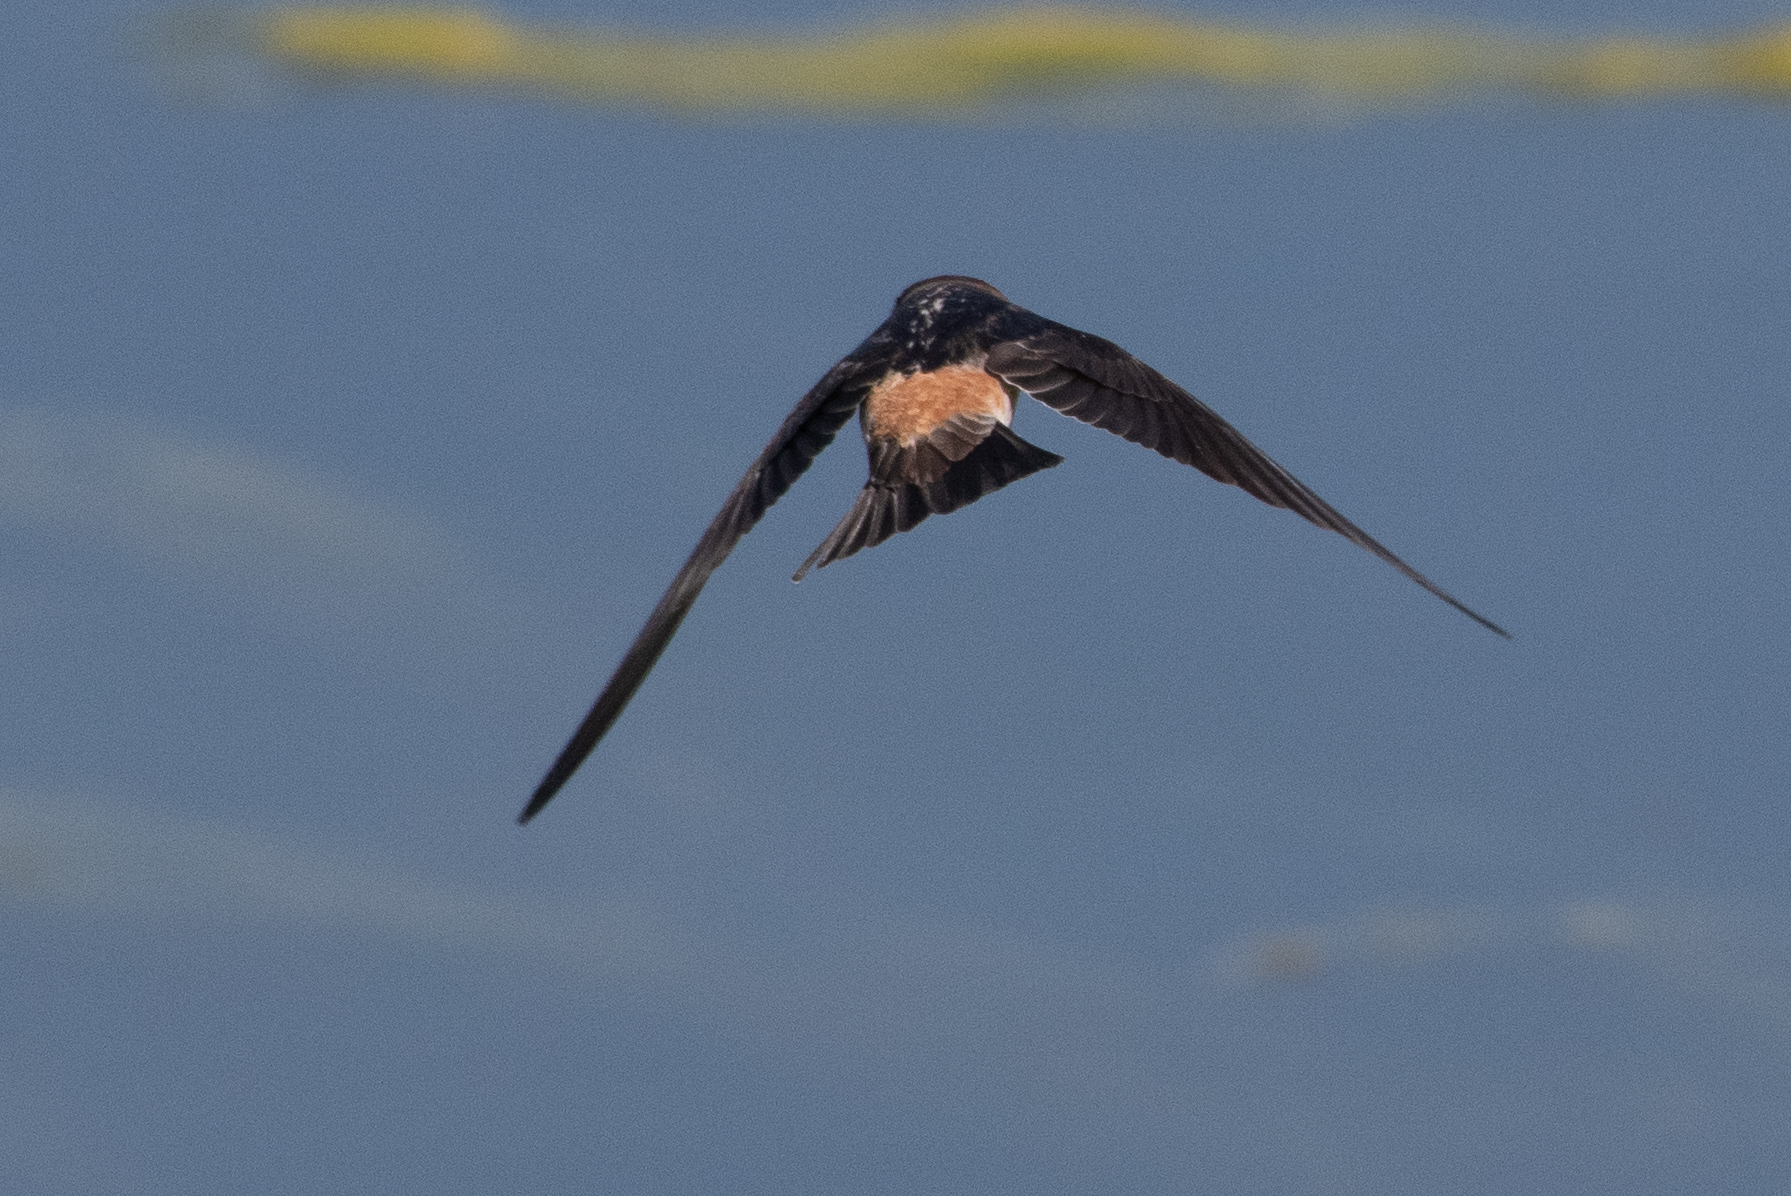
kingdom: Animalia
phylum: Chordata
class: Aves
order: Passeriformes
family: Hirundinidae
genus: Hirundo
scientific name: Hirundo rustica
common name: Barn swallow
